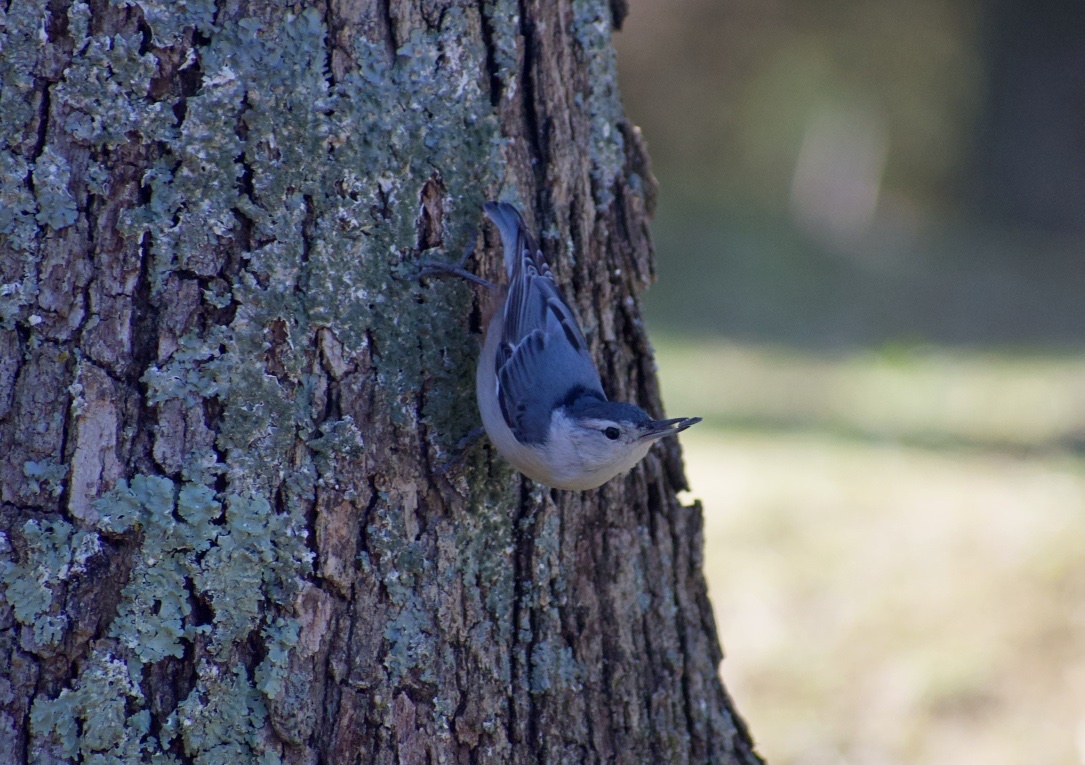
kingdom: Animalia
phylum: Chordata
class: Aves
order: Passeriformes
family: Sittidae
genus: Sitta
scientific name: Sitta carolinensis
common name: White-breasted nuthatch
